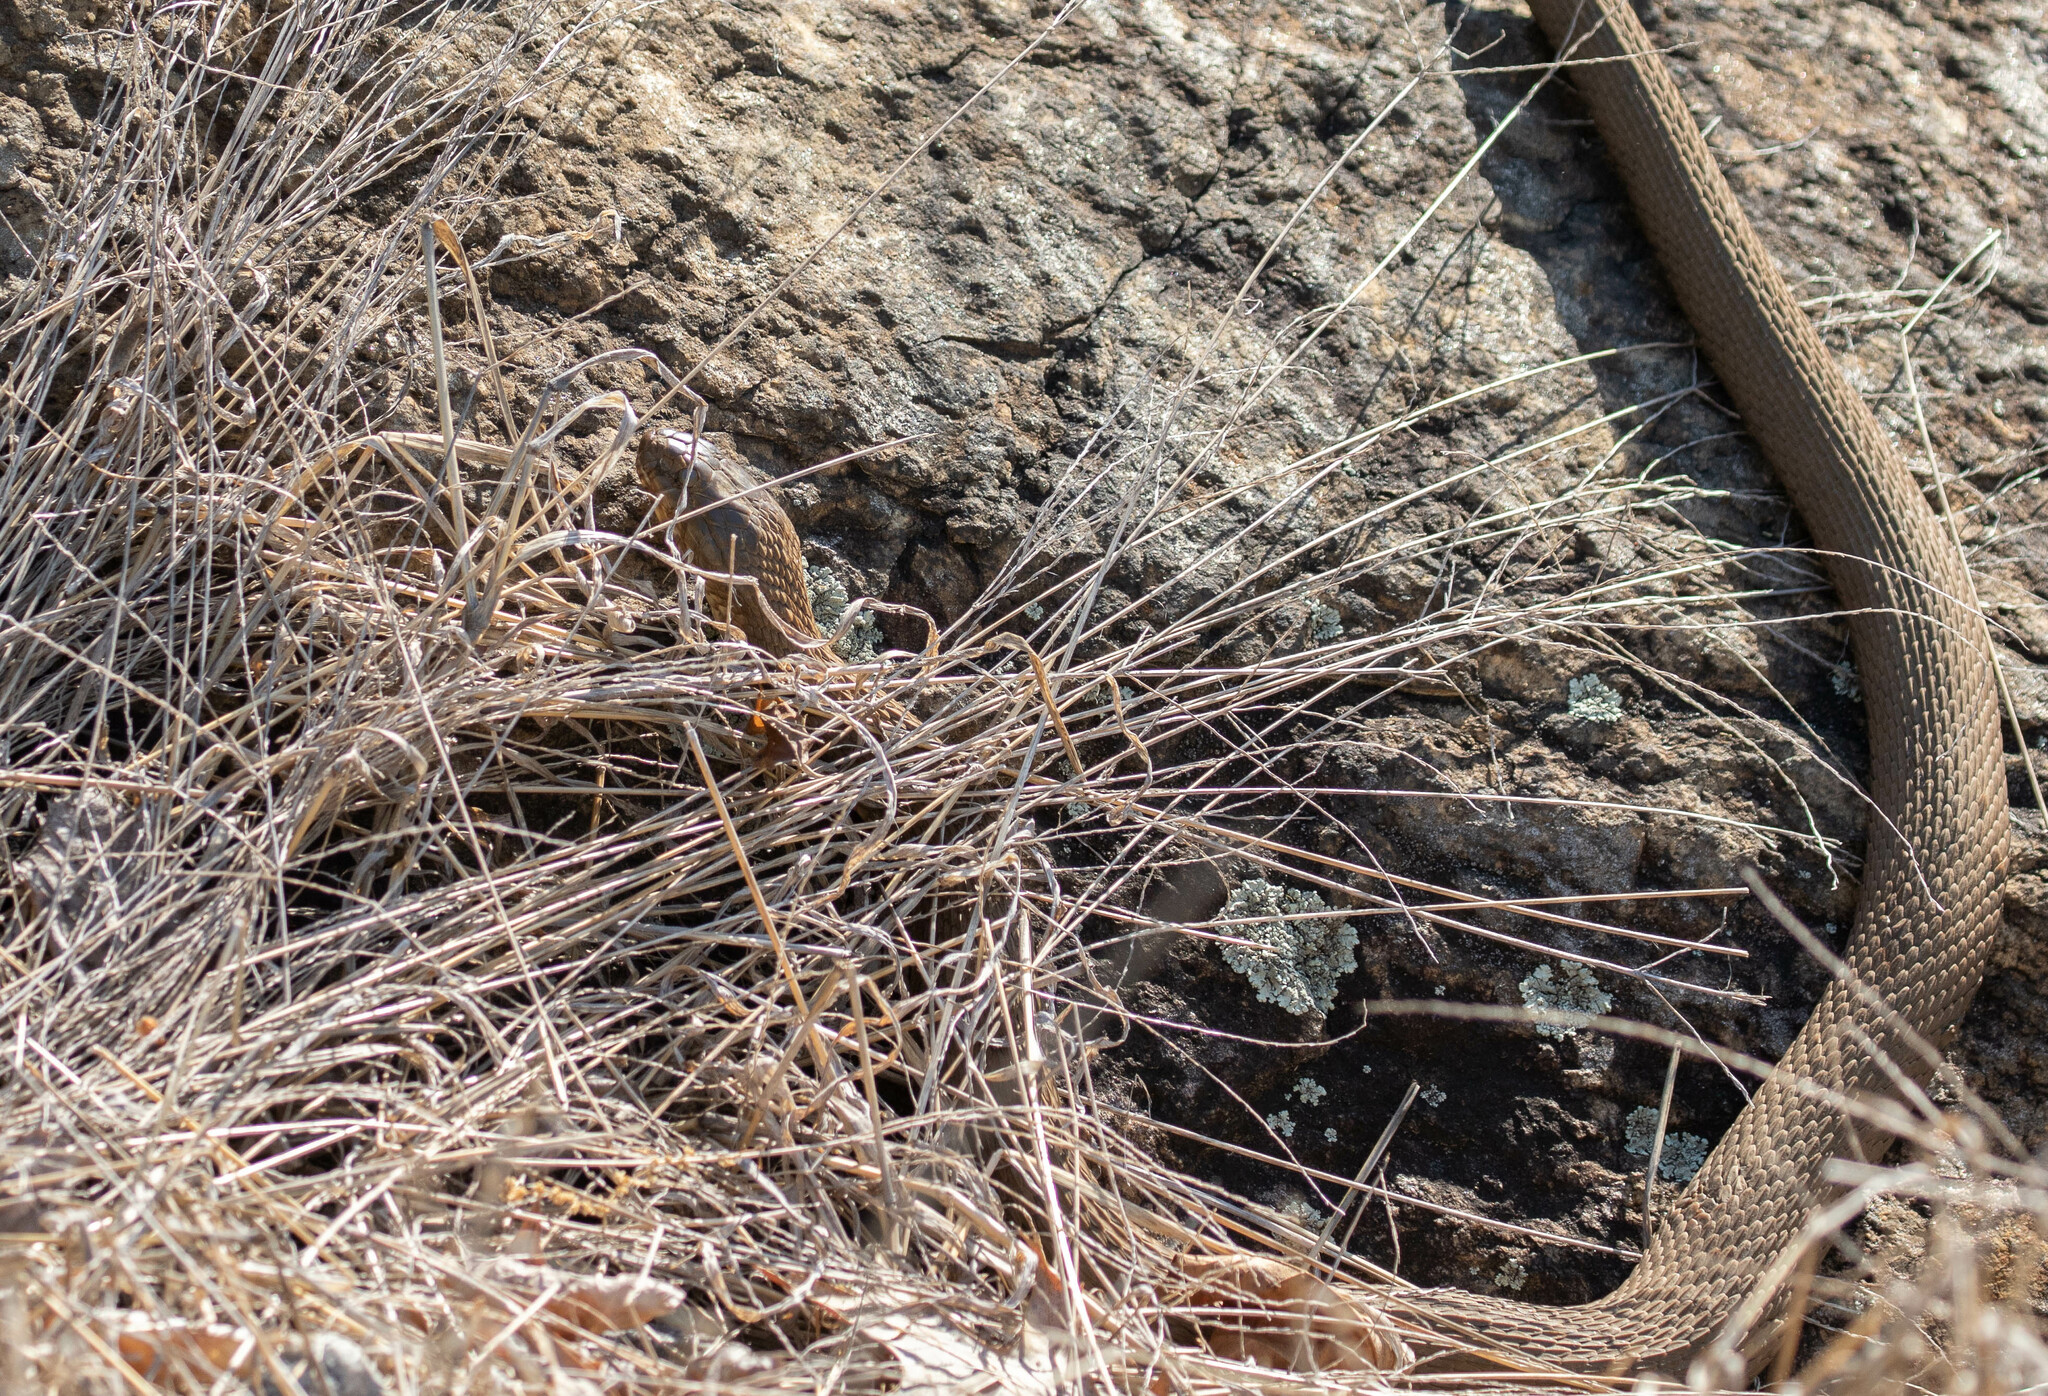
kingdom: Animalia
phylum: Chordata
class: Squamata
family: Colubridae
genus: Nerodia
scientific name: Nerodia sipedon
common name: Northern water snake
